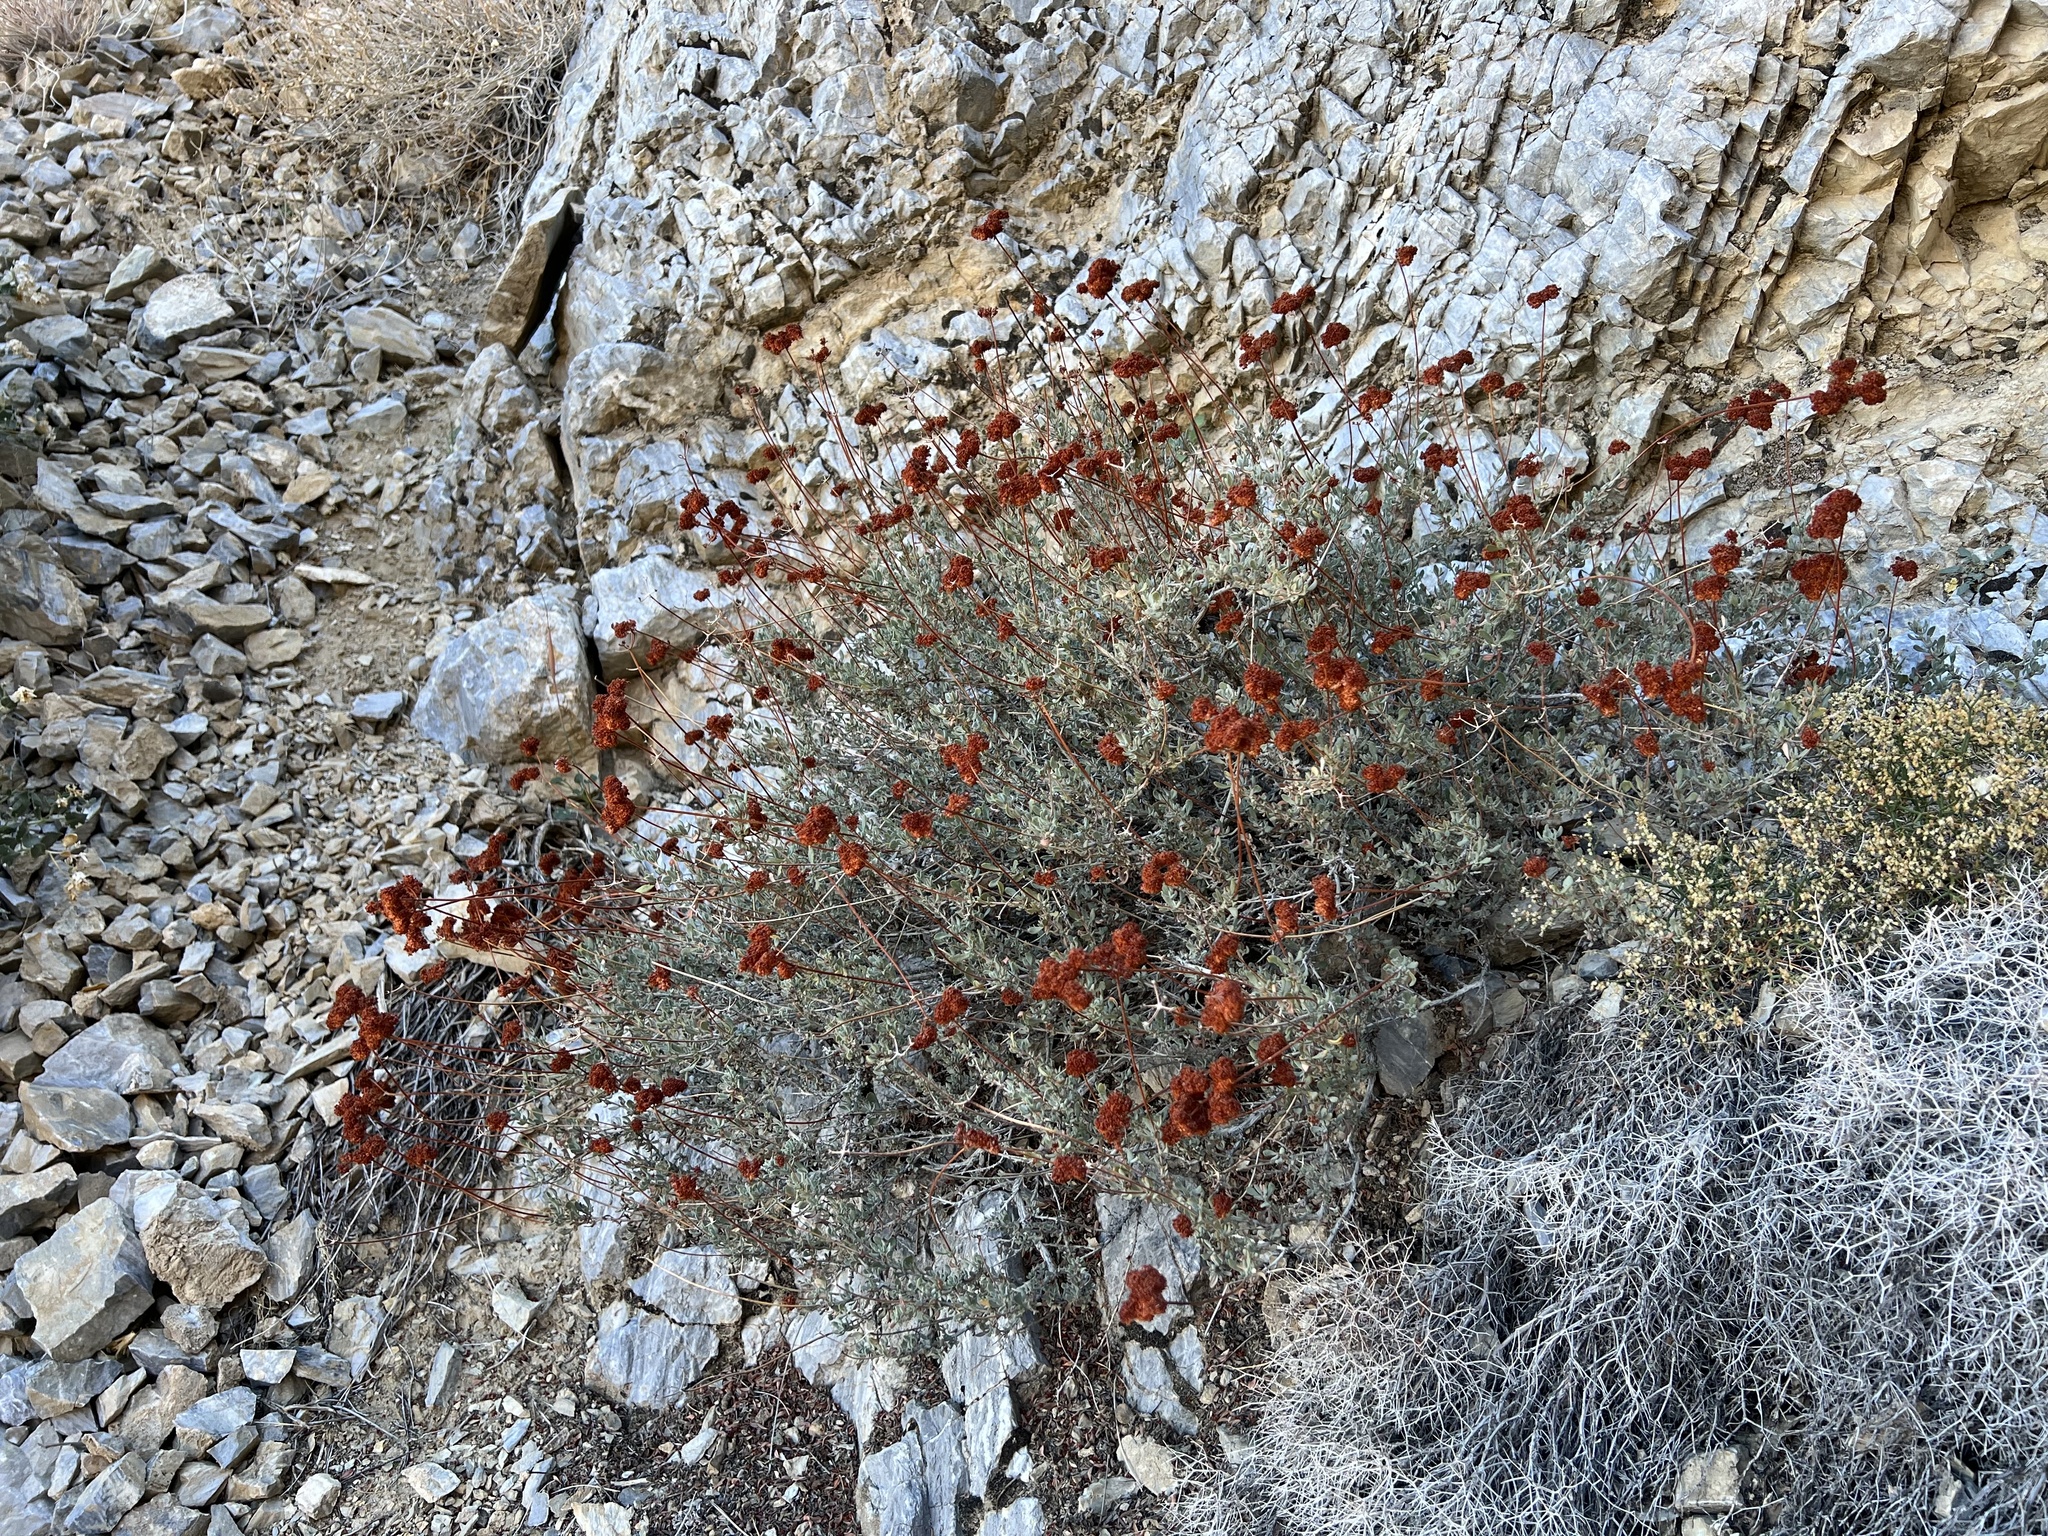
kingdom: Plantae
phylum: Tracheophyta
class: Magnoliopsida
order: Caryophyllales
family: Polygonaceae
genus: Eriogonum
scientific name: Eriogonum fasciculatum
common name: California wild buckwheat
